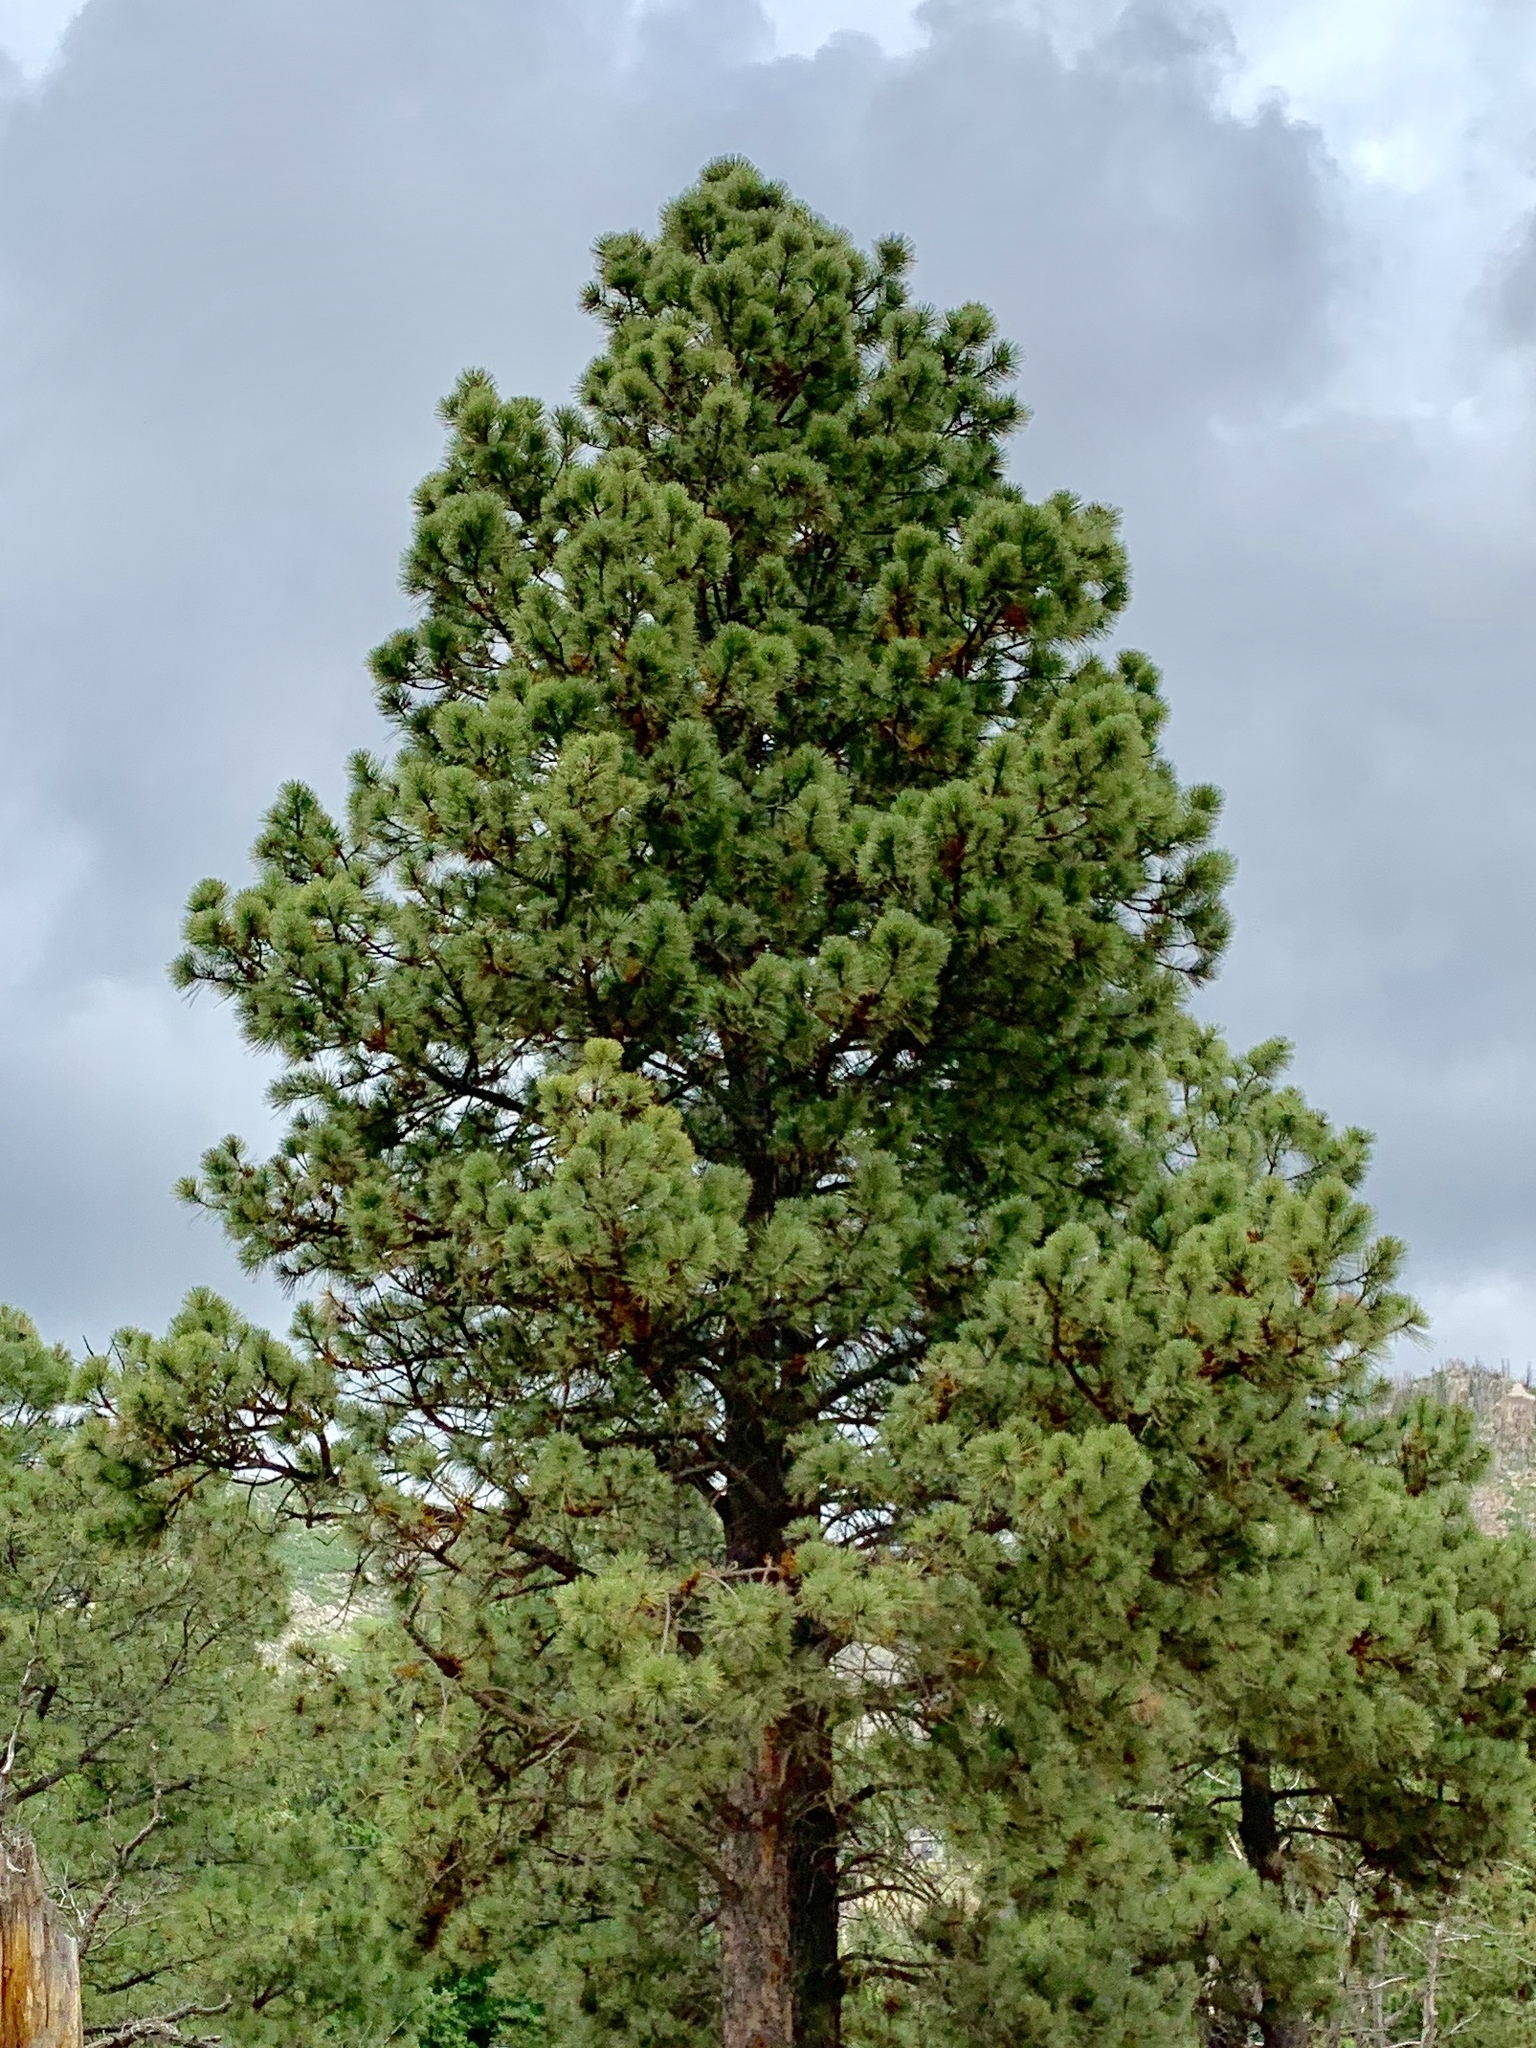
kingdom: Plantae
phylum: Tracheophyta
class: Pinopsida
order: Pinales
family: Pinaceae
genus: Pinus
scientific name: Pinus ponderosa
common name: Western yellow-pine
